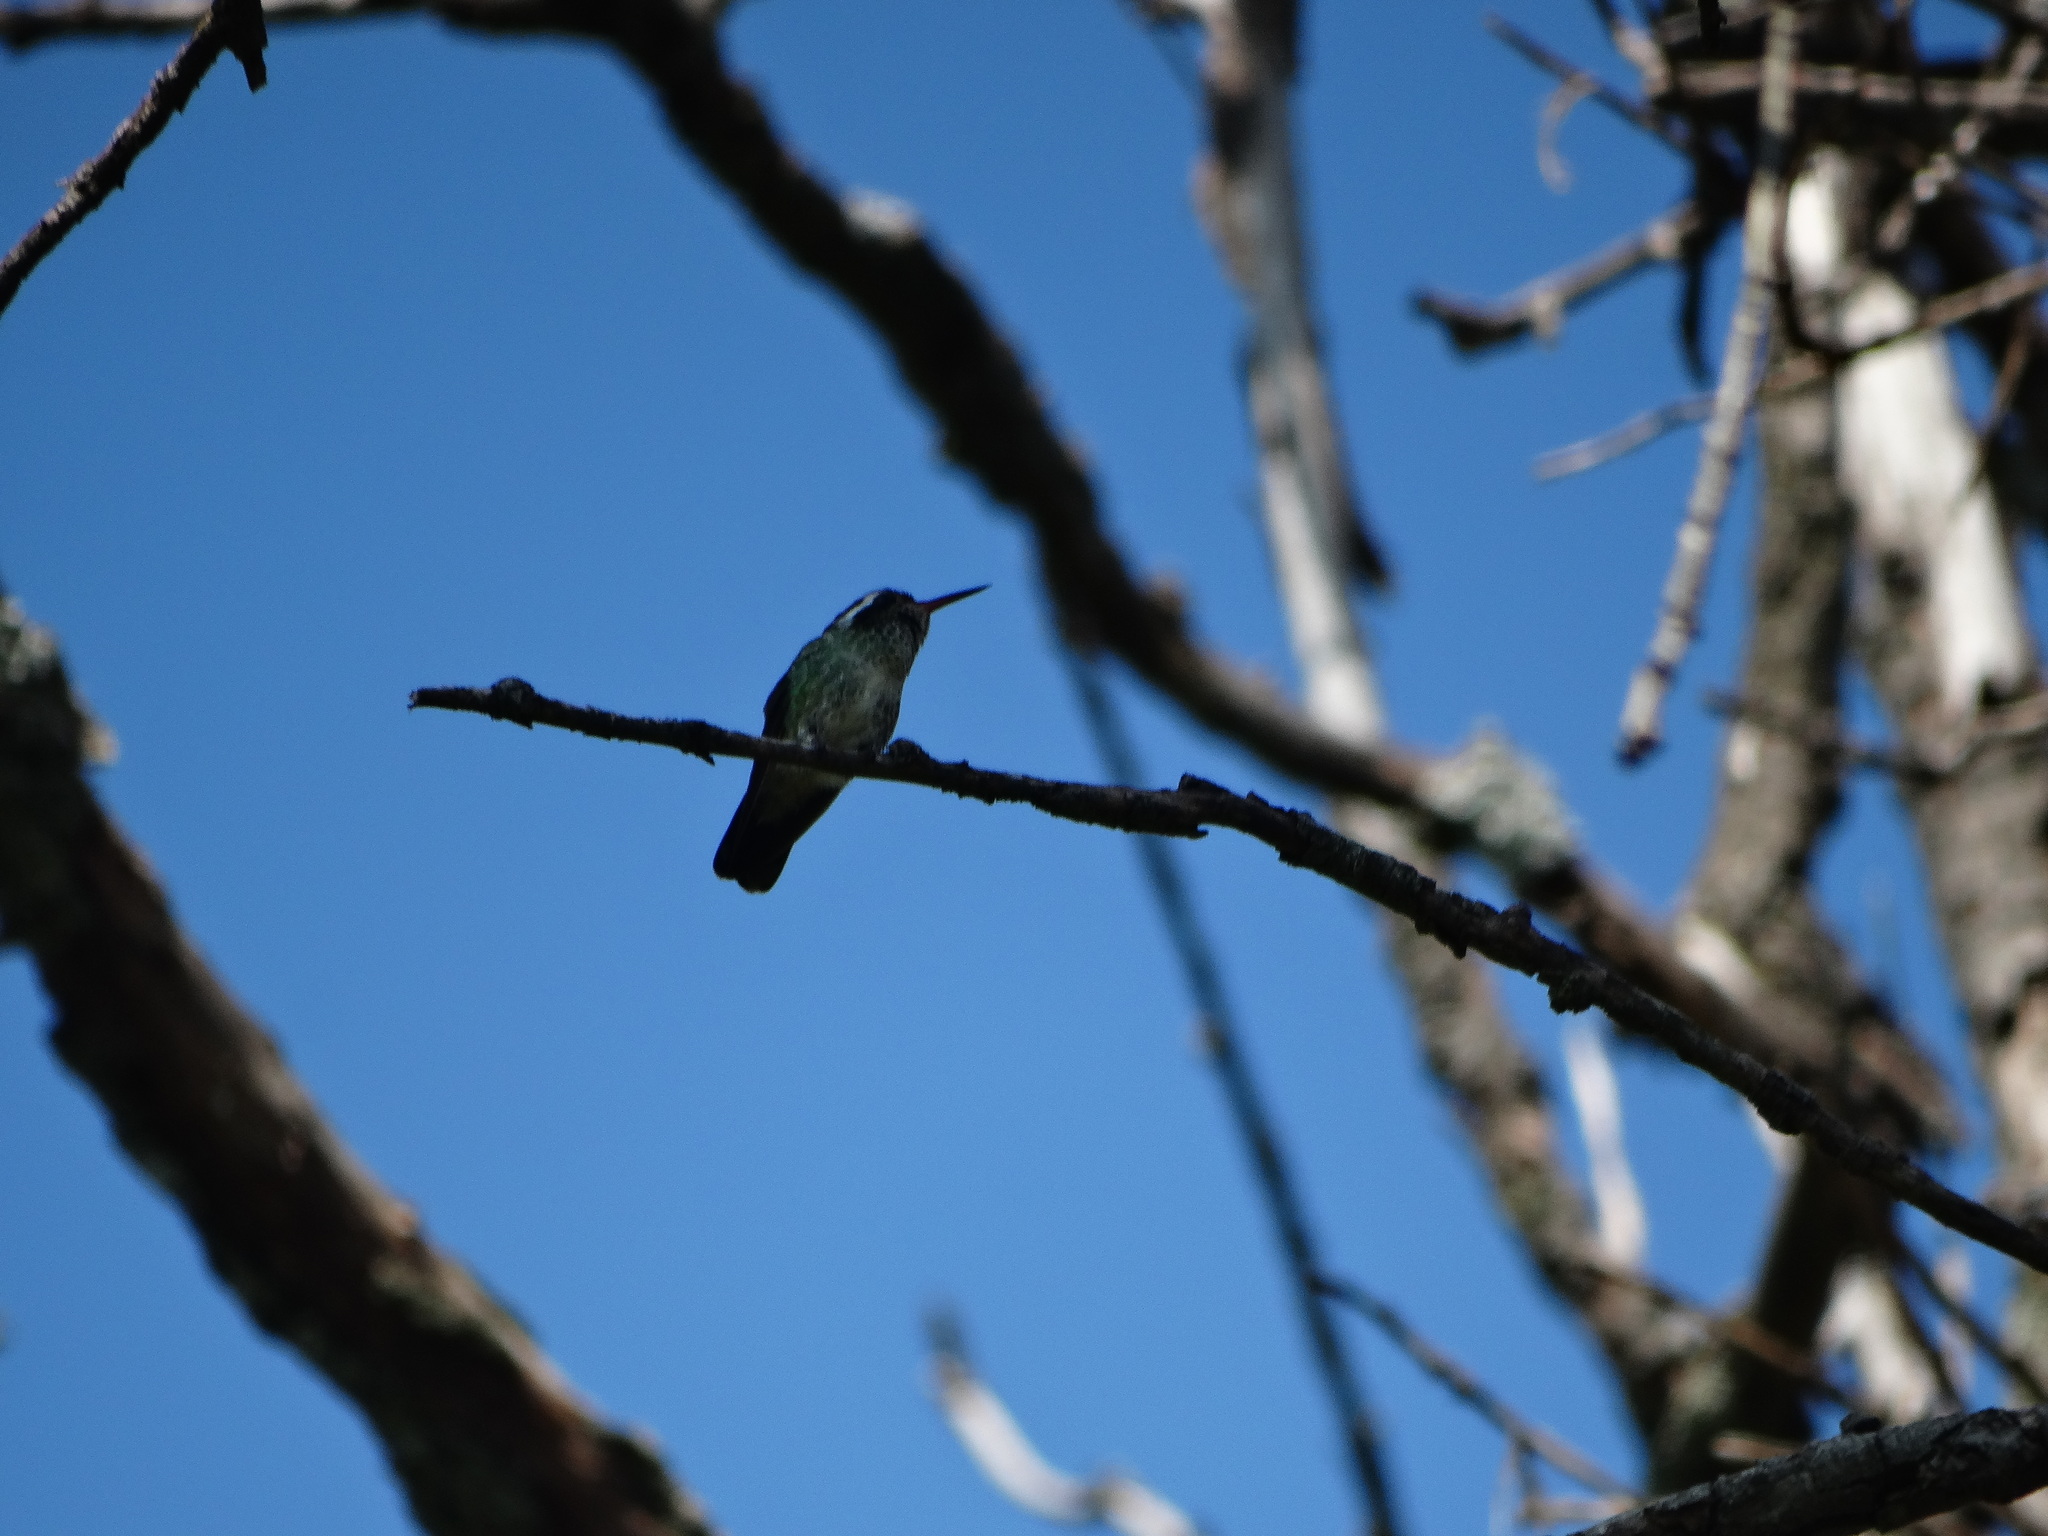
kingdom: Animalia
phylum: Chordata
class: Aves
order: Apodiformes
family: Trochilidae
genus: Basilinna
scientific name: Basilinna leucotis
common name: White-eared hummingbird
